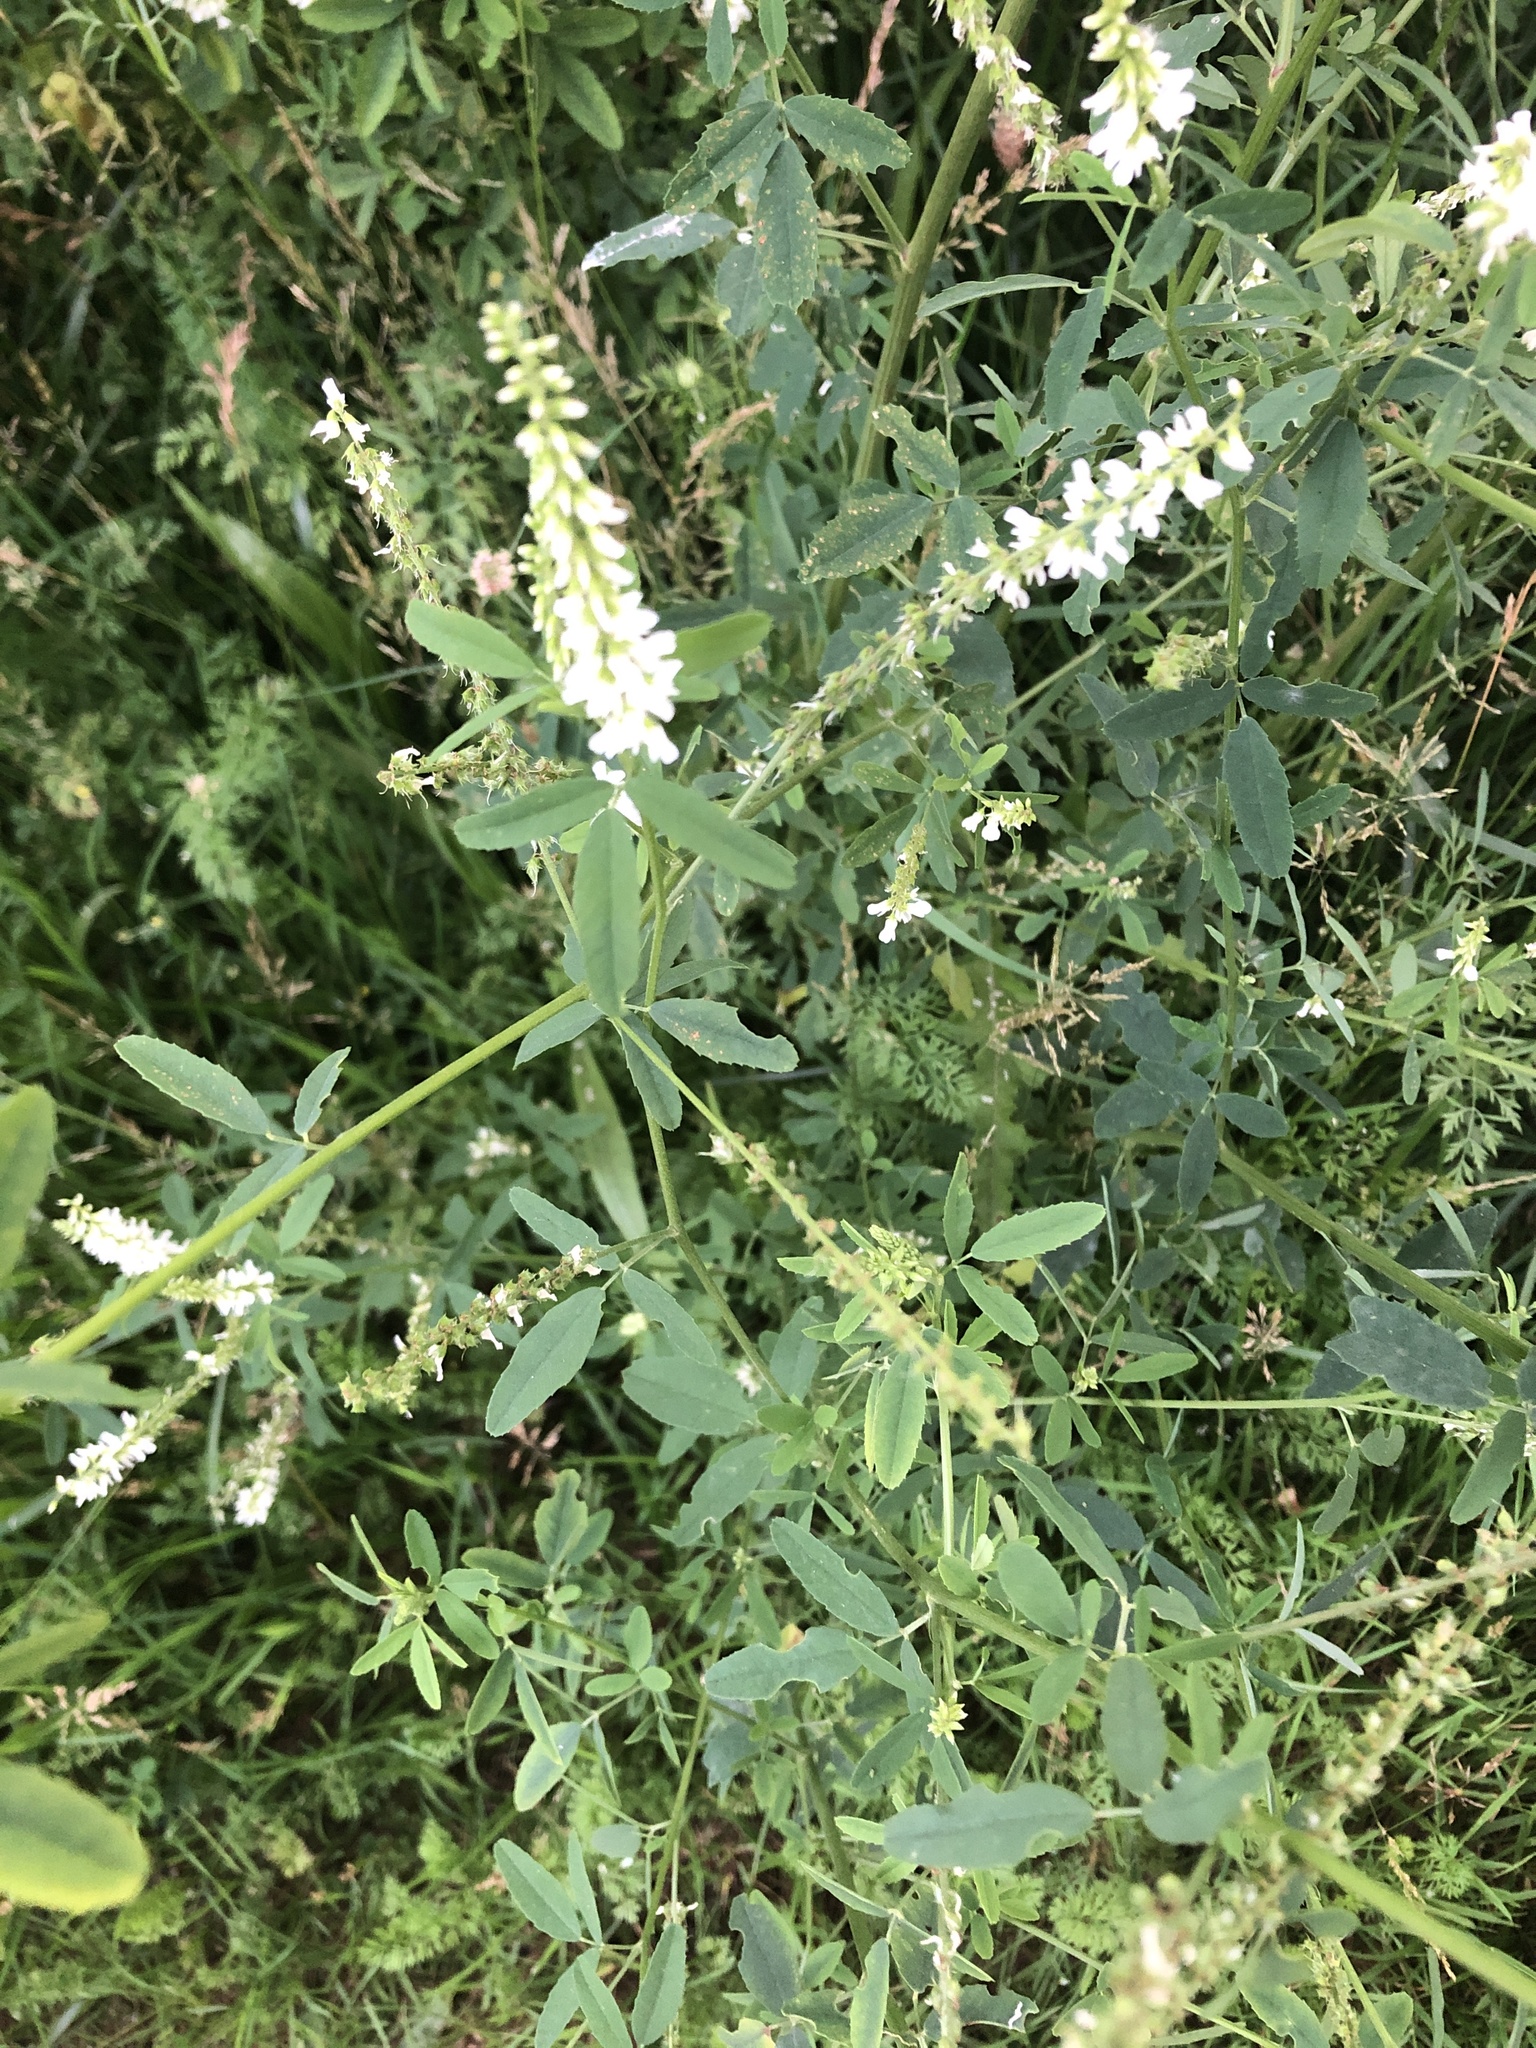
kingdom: Plantae
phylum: Tracheophyta
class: Magnoliopsida
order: Fabales
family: Fabaceae
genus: Melilotus
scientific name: Melilotus albus
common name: White melilot
